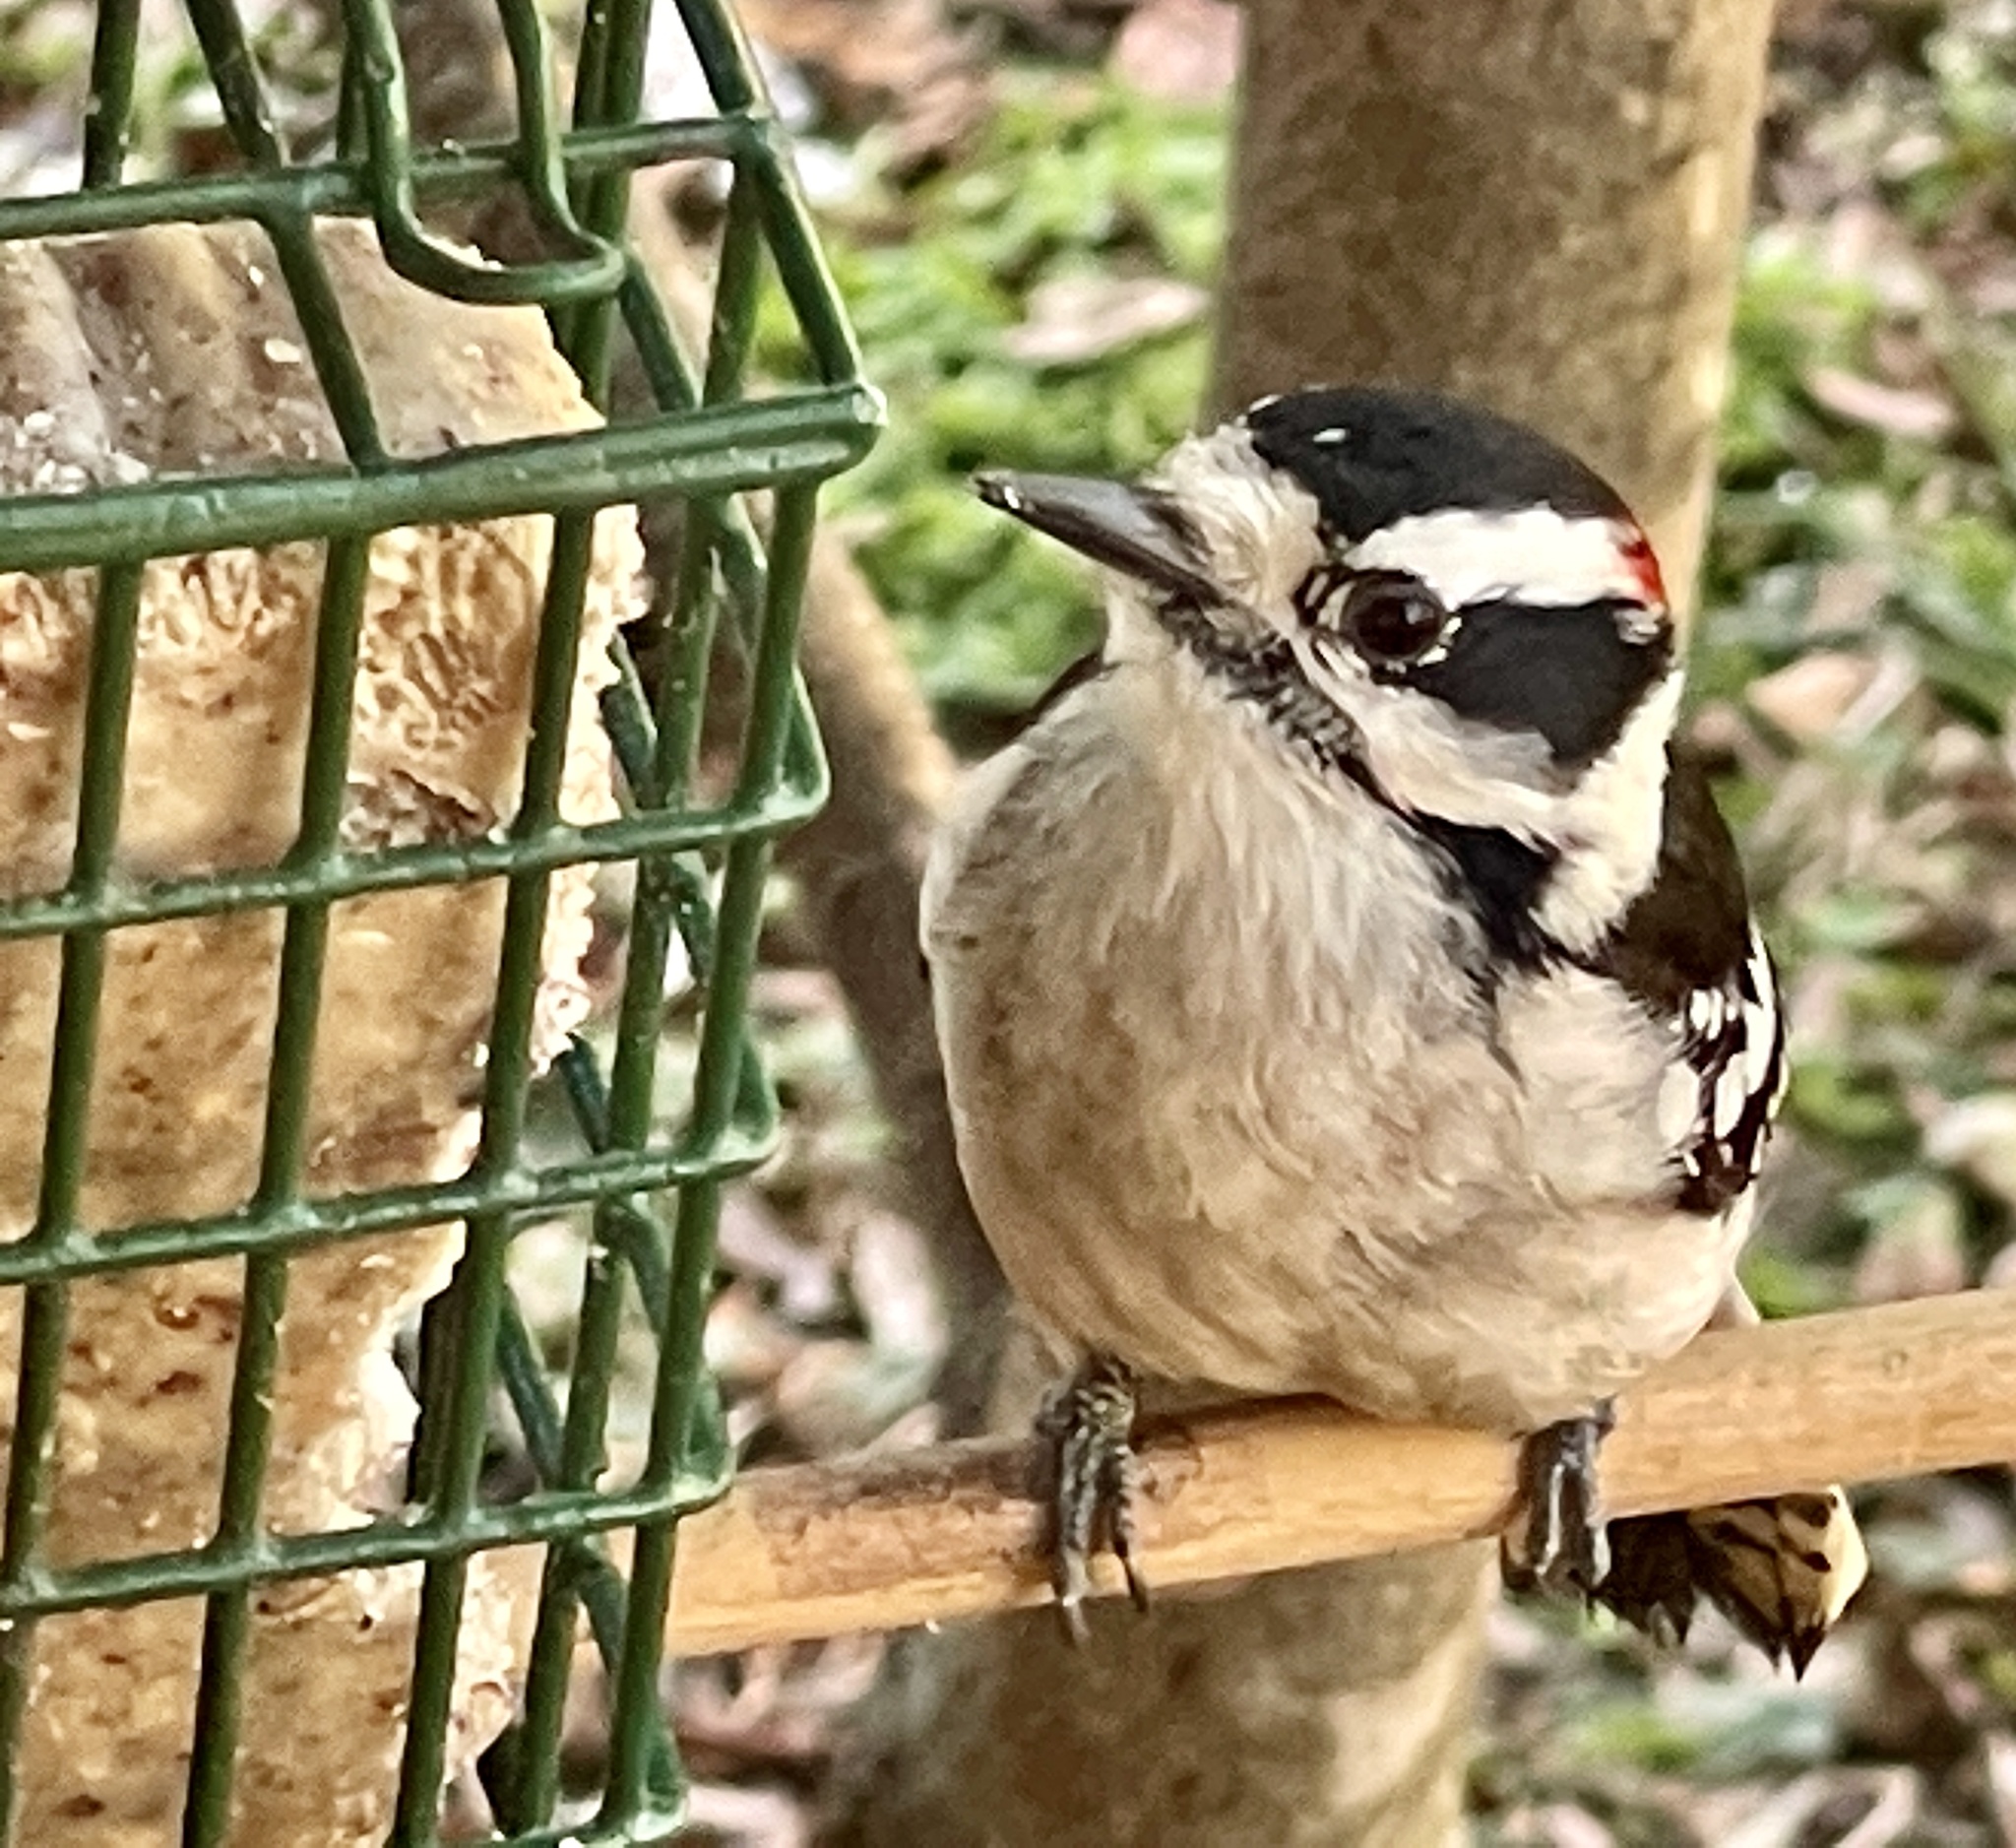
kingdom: Animalia
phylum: Chordata
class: Aves
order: Piciformes
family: Picidae
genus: Dryobates
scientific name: Dryobates pubescens
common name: Downy woodpecker
